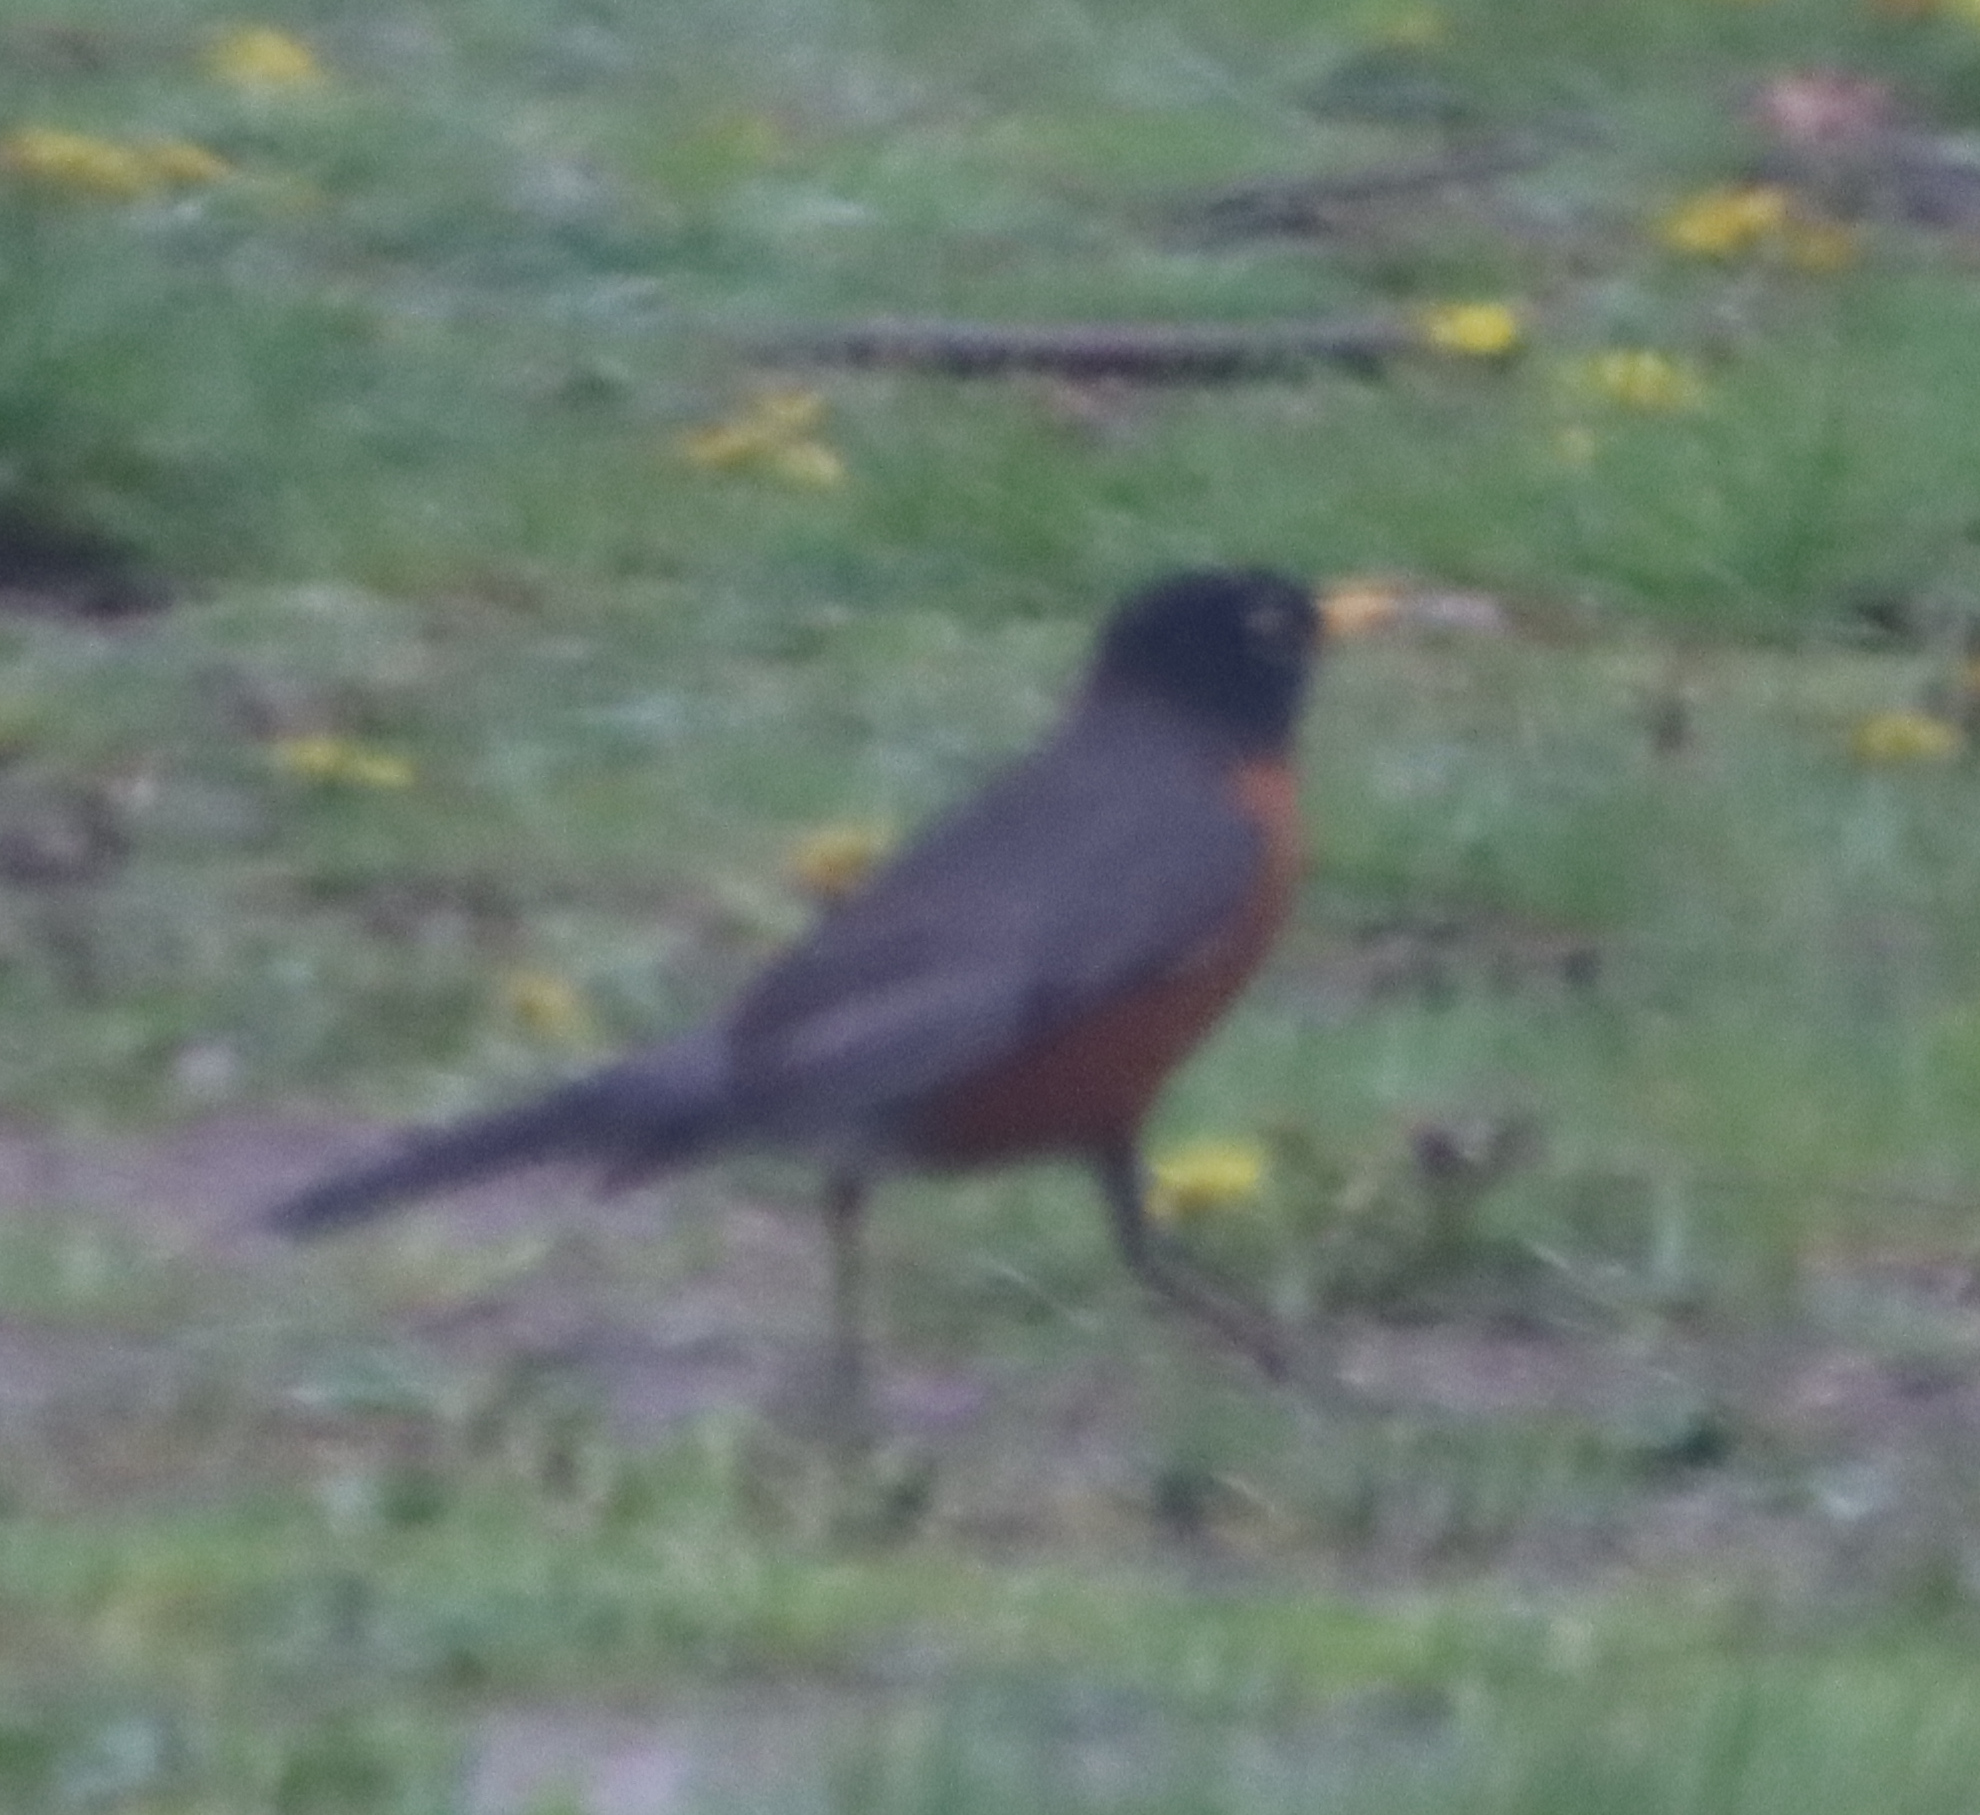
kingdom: Animalia
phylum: Chordata
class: Aves
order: Passeriformes
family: Turdidae
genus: Turdus
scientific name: Turdus migratorius
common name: American robin
